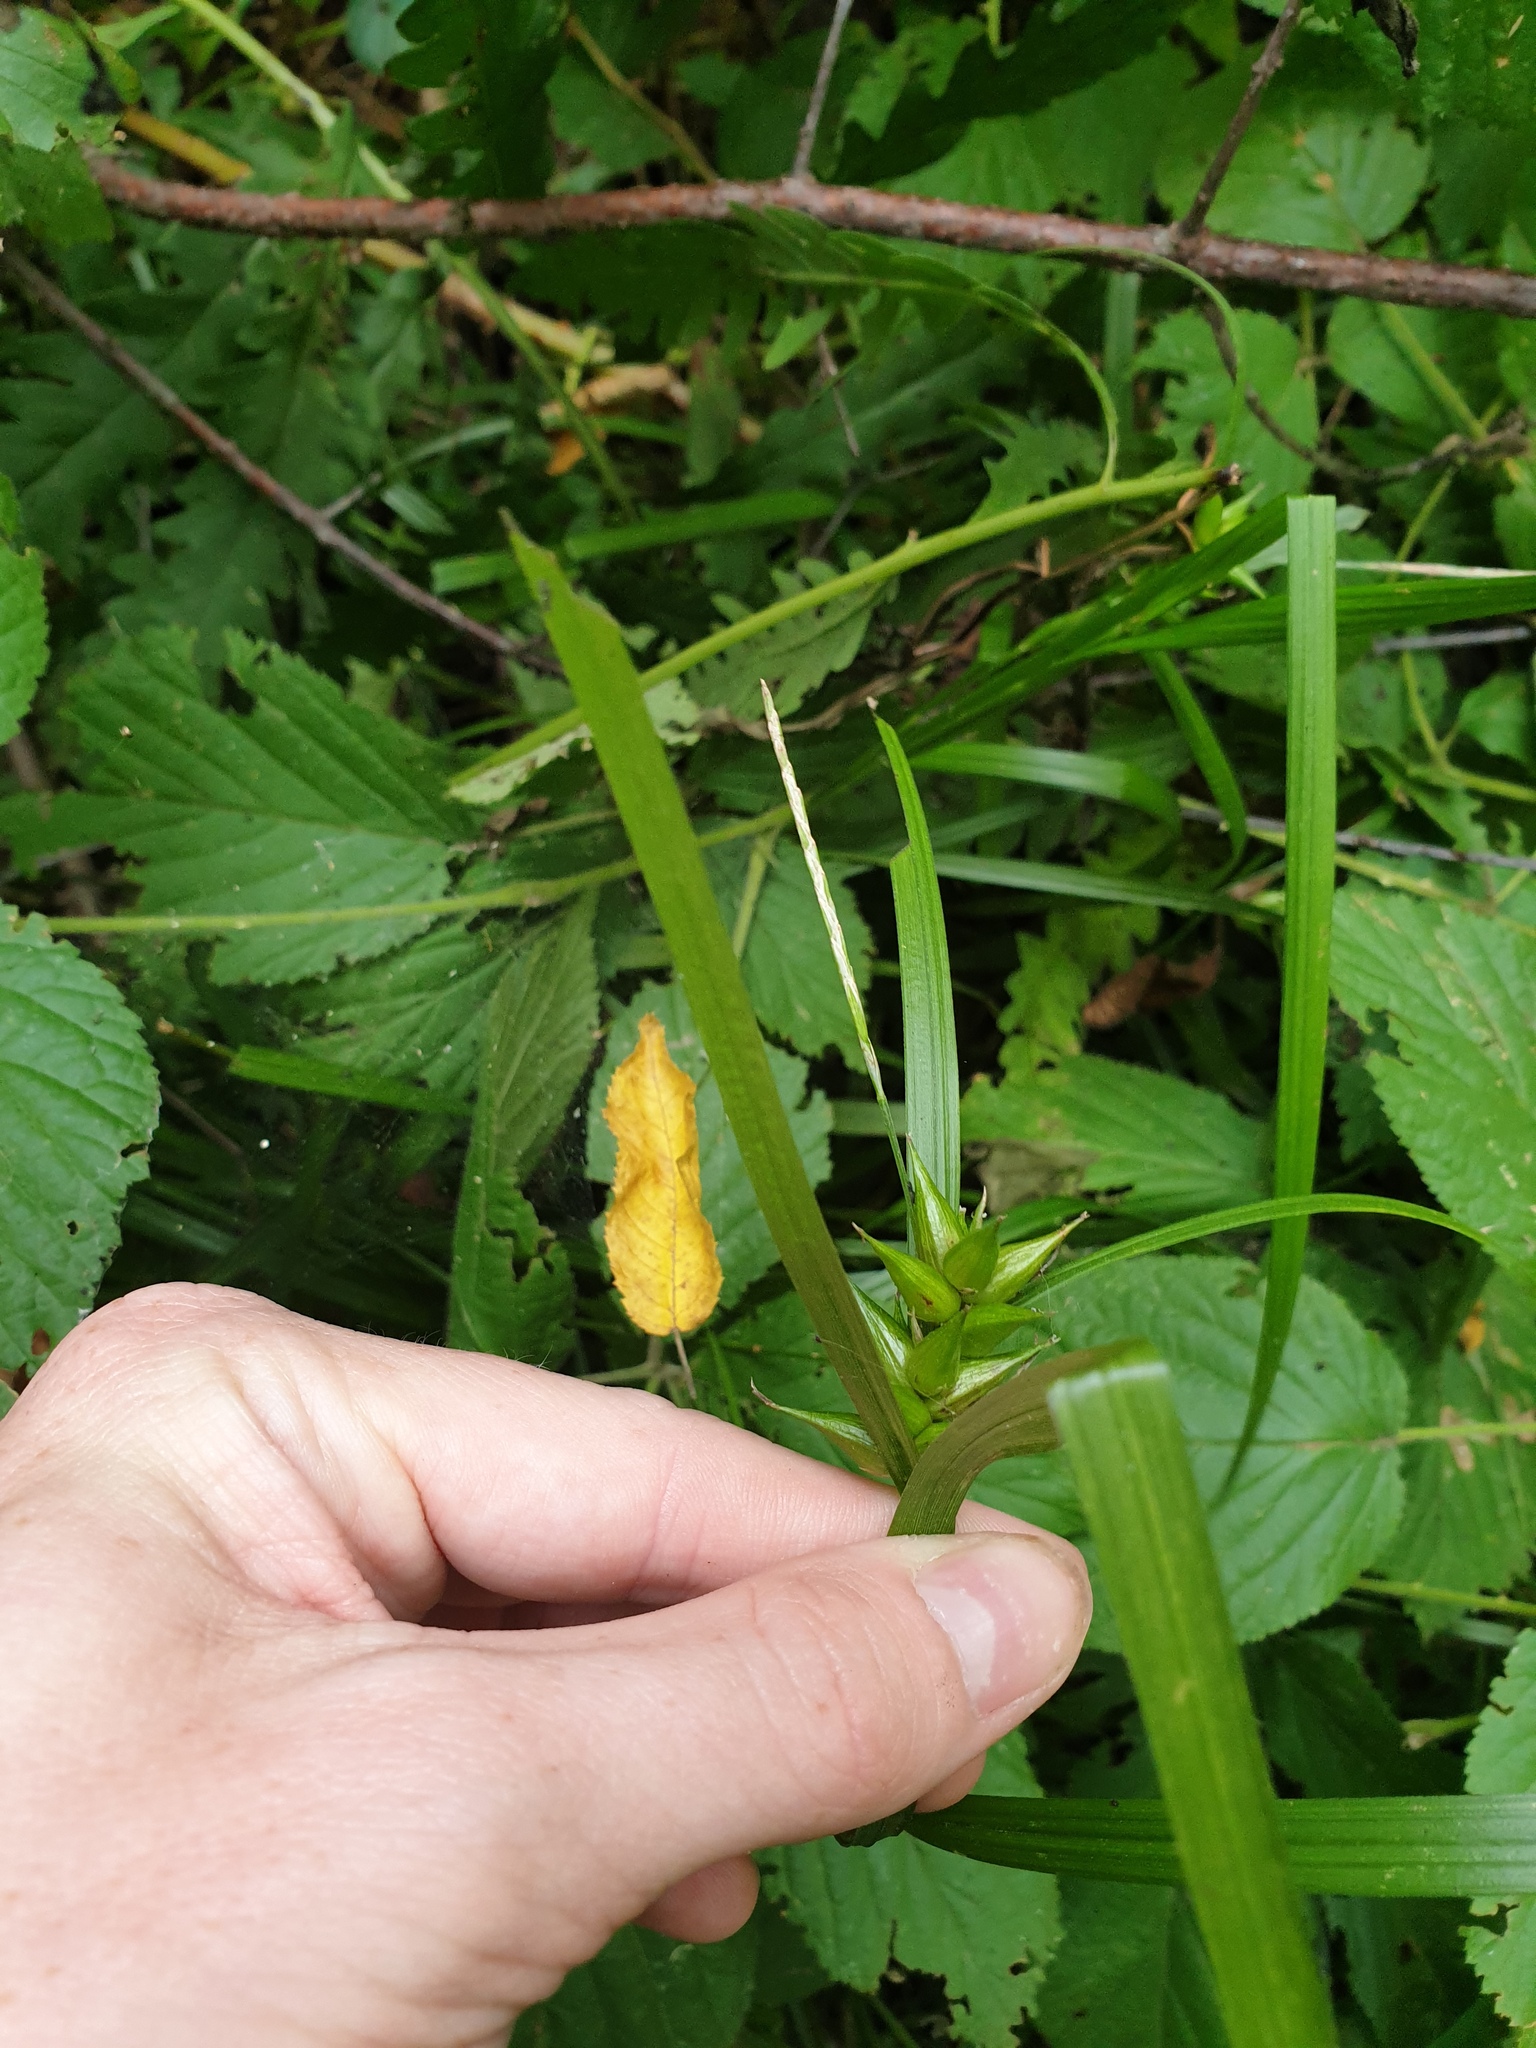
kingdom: Plantae
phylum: Tracheophyta
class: Liliopsida
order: Poales
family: Cyperaceae
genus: Carex
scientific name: Carex intumescens
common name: Greater bladder sedge
